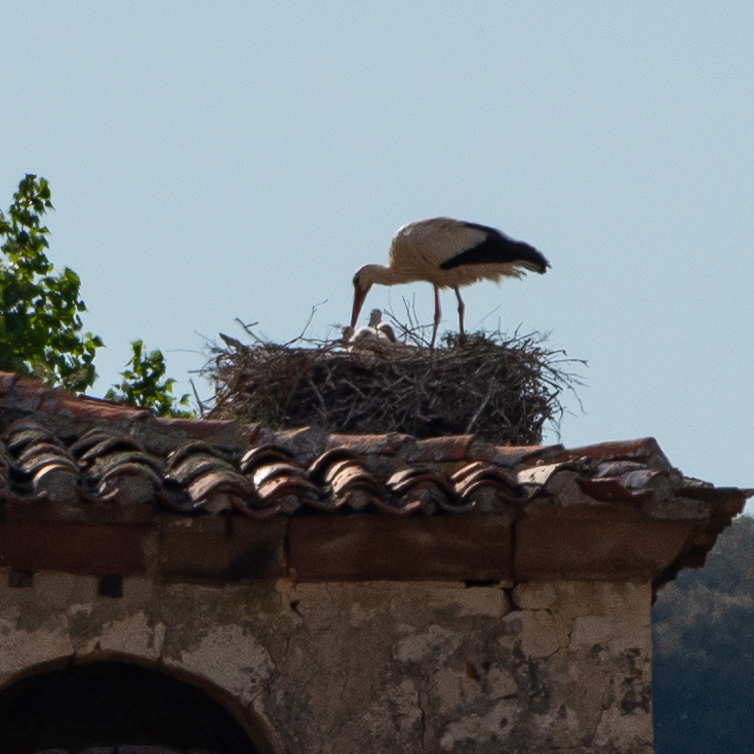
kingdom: Animalia
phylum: Chordata
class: Aves
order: Ciconiiformes
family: Ciconiidae
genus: Ciconia
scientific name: Ciconia ciconia
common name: White stork
